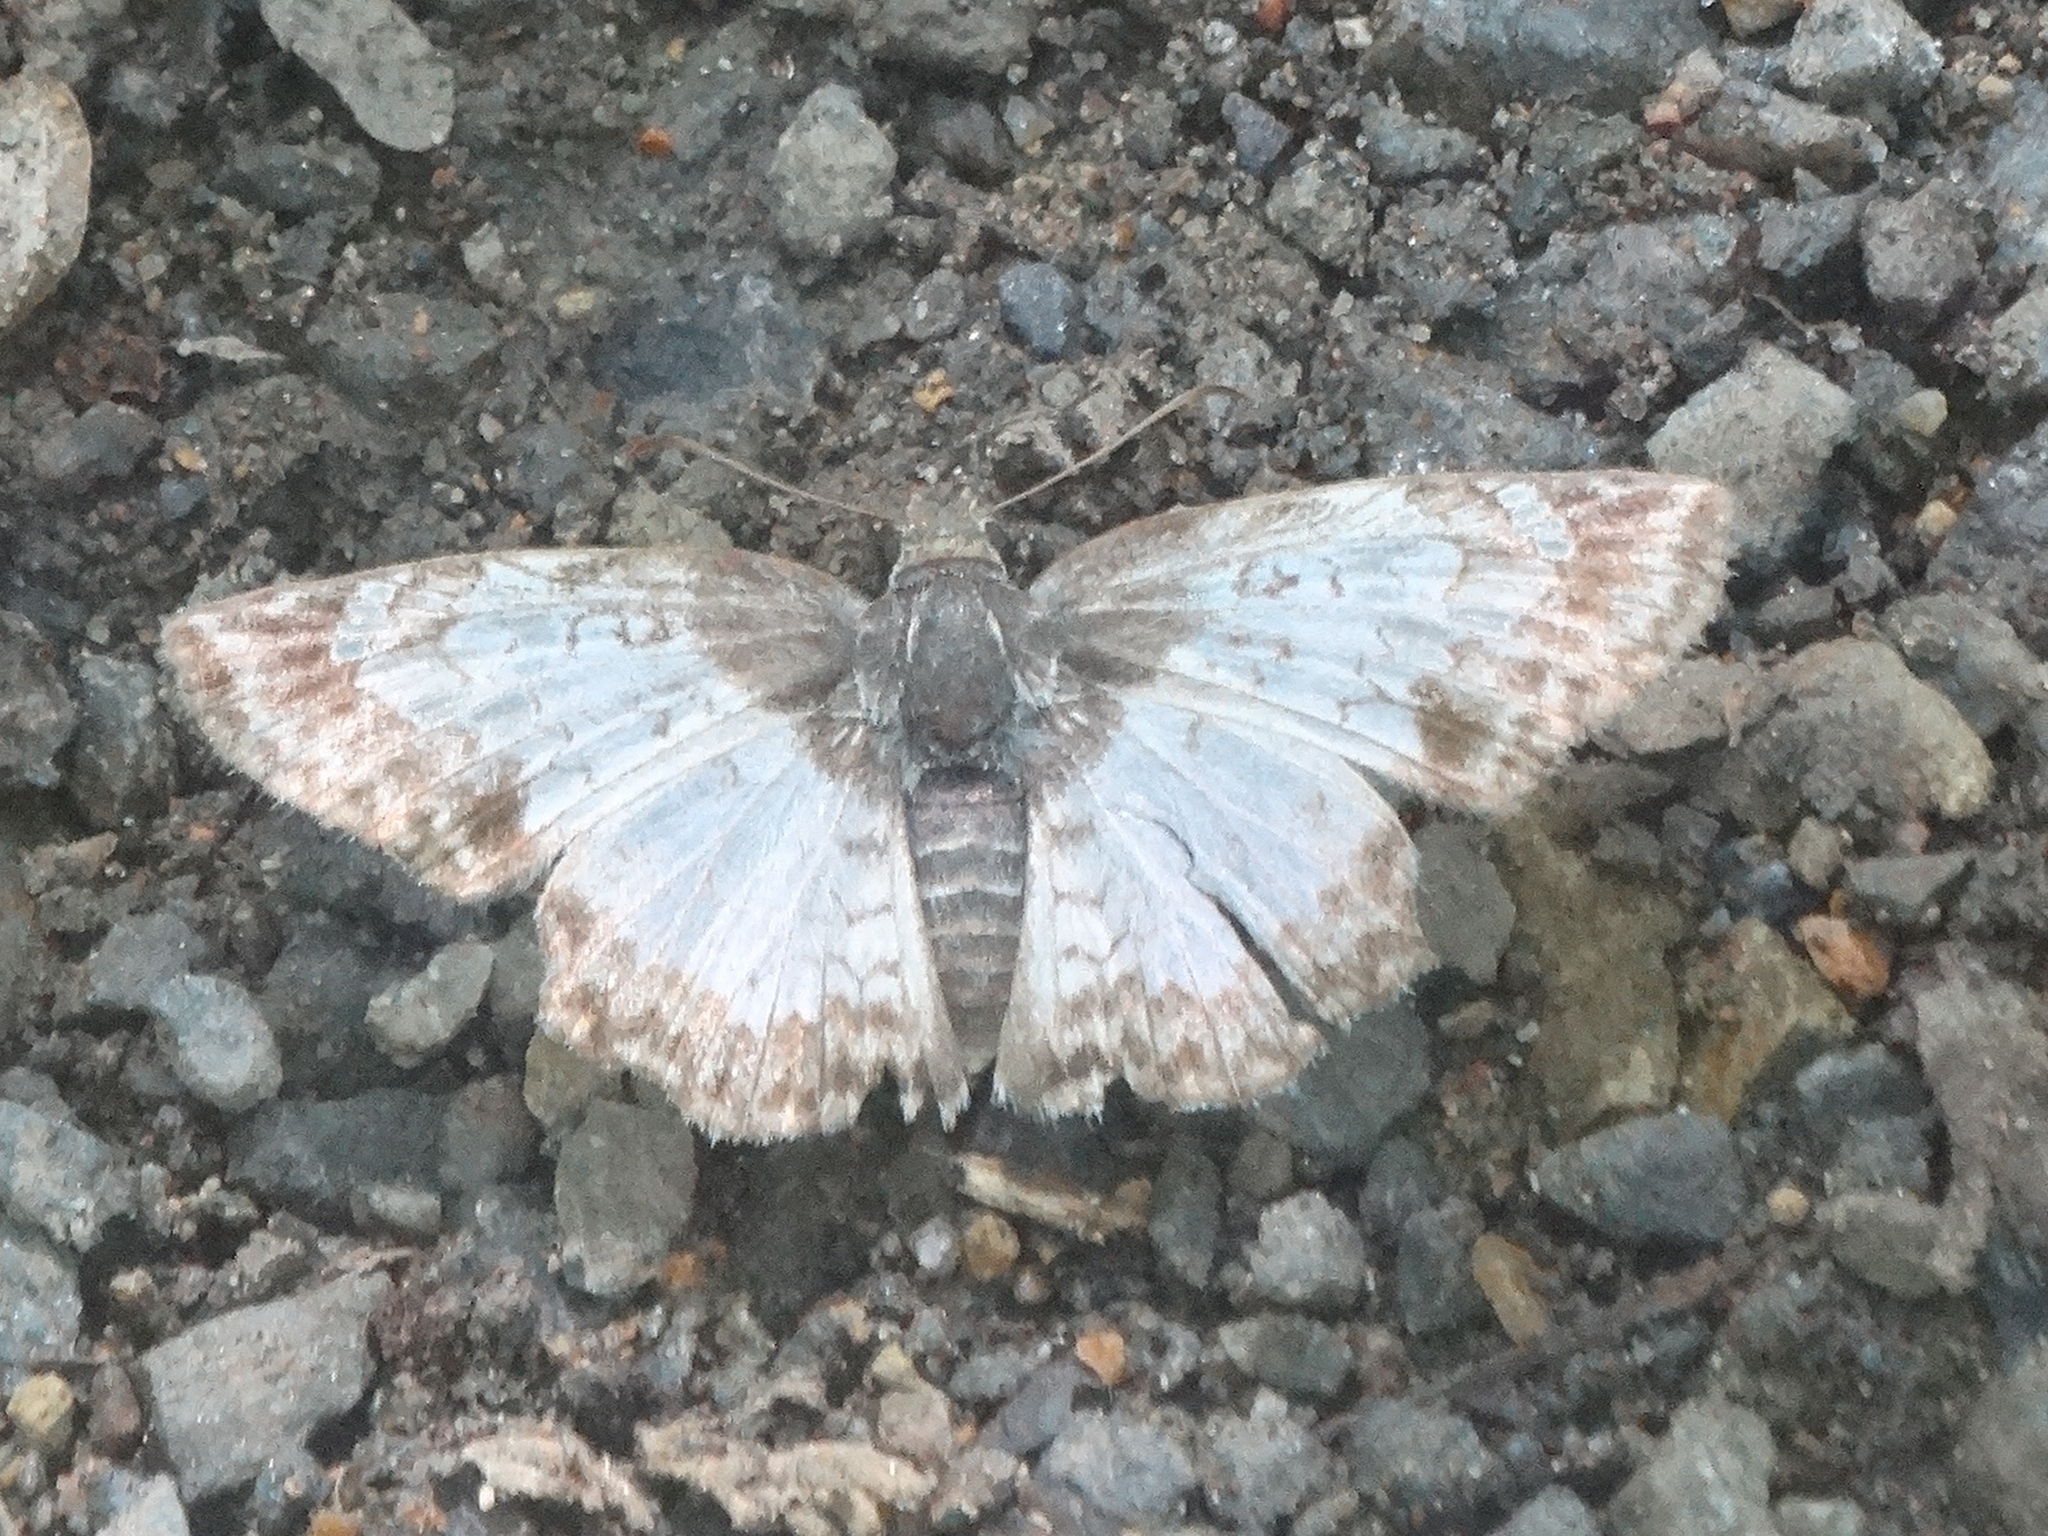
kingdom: Animalia
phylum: Arthropoda
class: Insecta
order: Lepidoptera
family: Hesperiidae
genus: Antigonus
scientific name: Antigonus emorsa
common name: White spurwing
